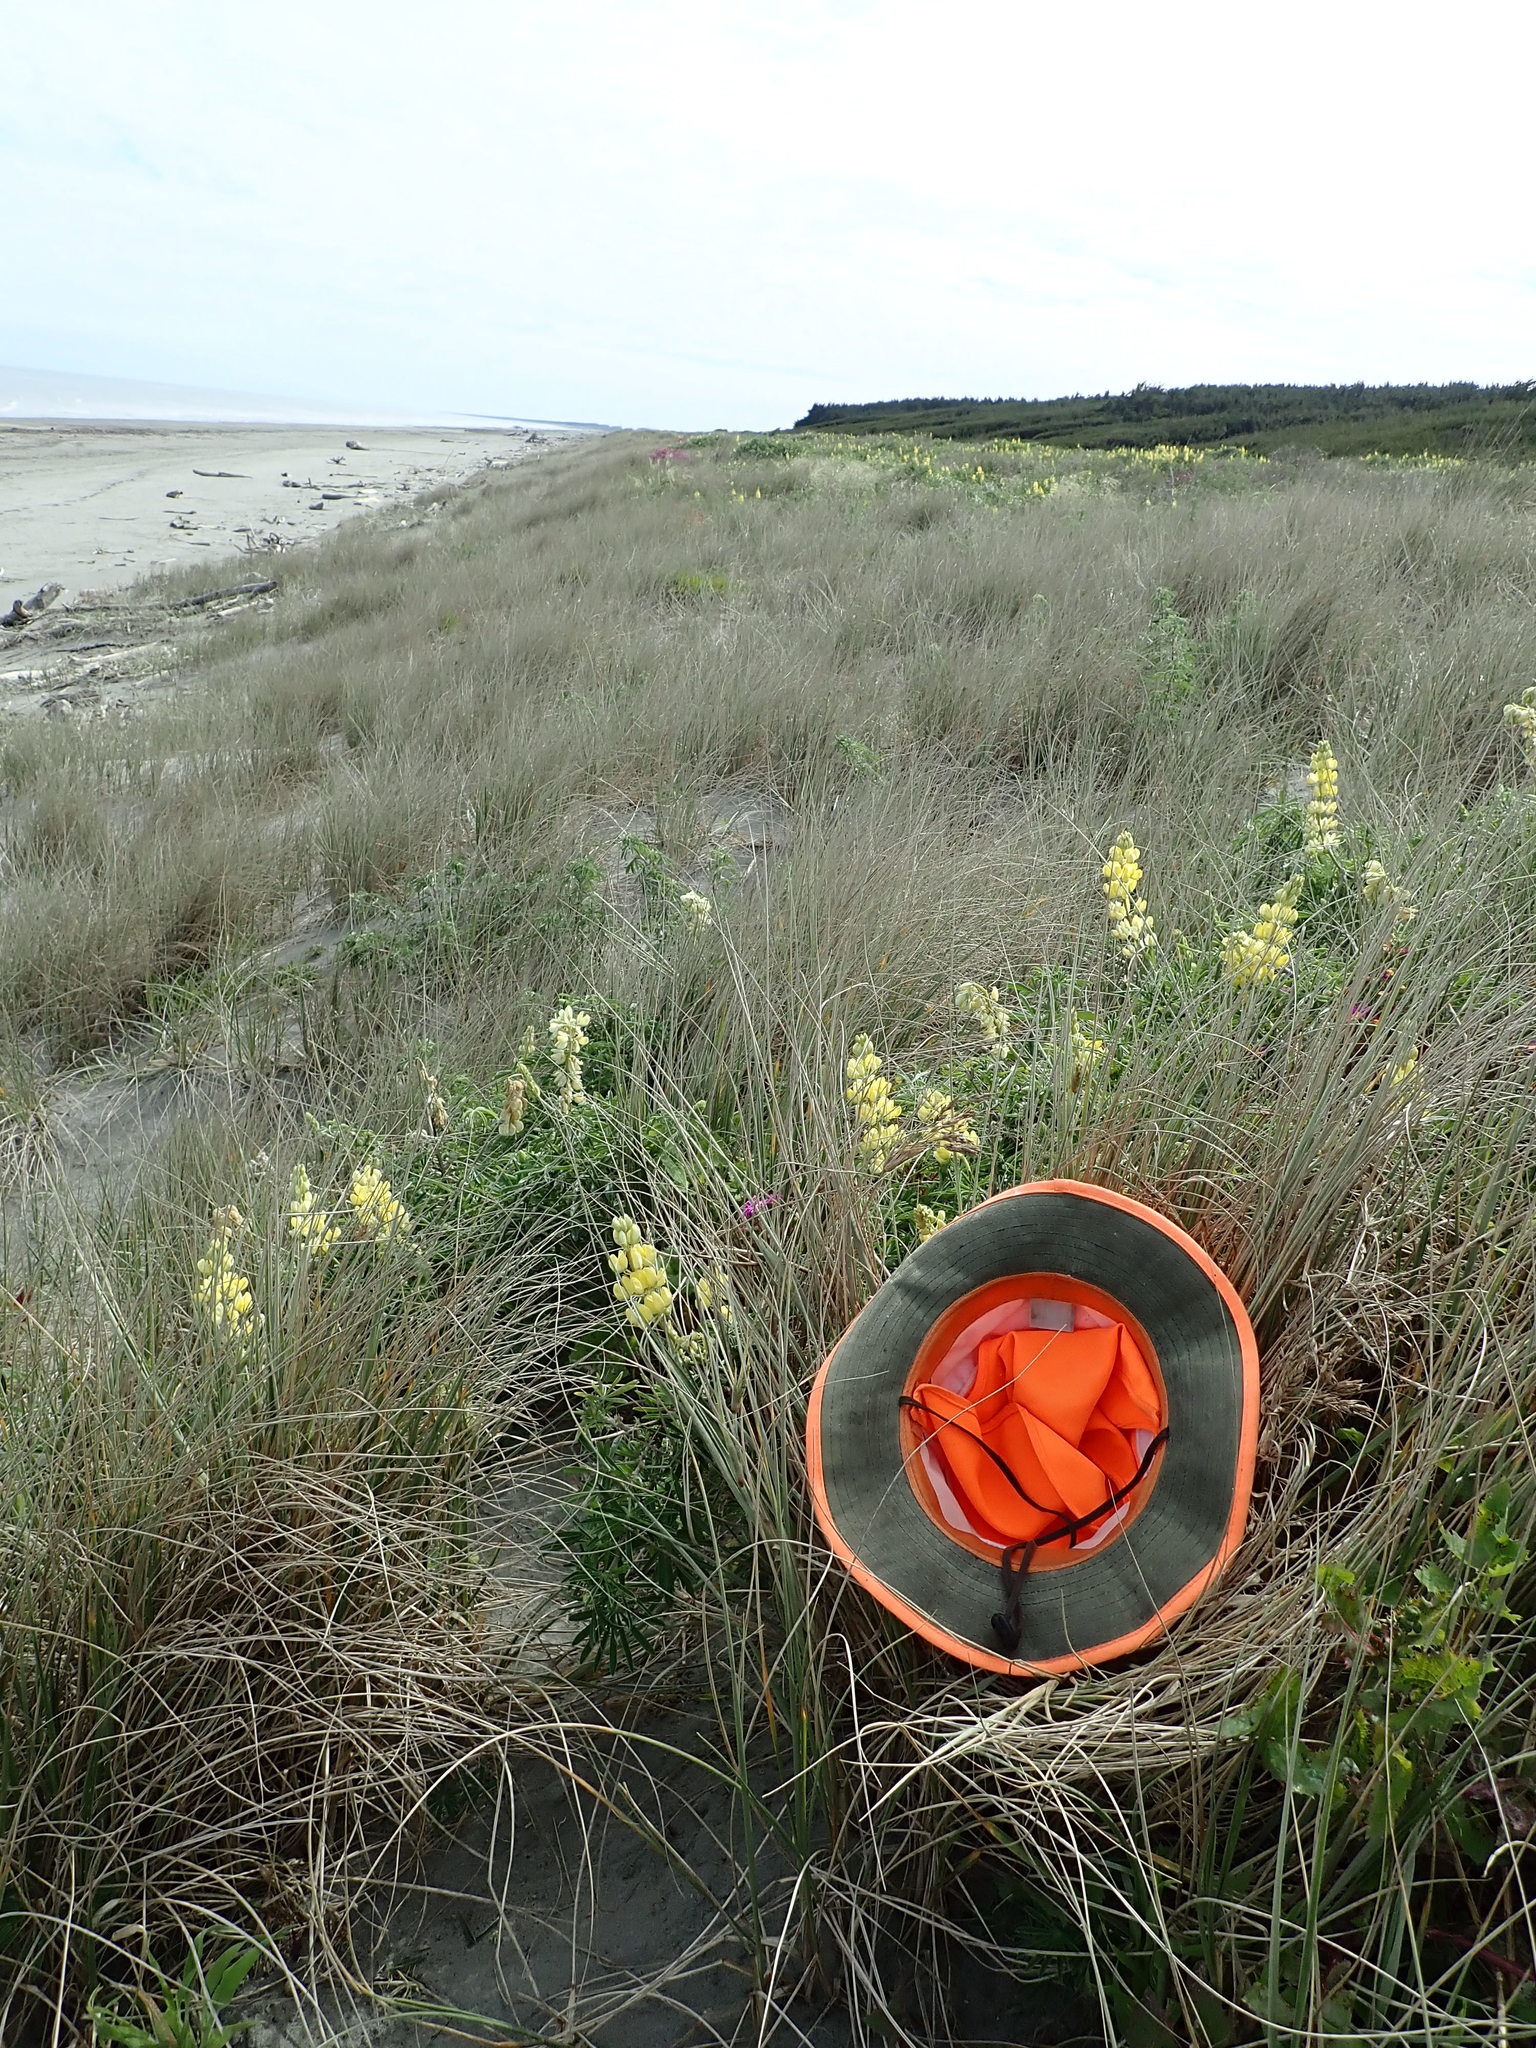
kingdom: Animalia
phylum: Mollusca
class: Gastropoda
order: Stylommatophora
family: Helicidae
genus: Cornu
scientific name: Cornu aspersum
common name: Brown garden snail
